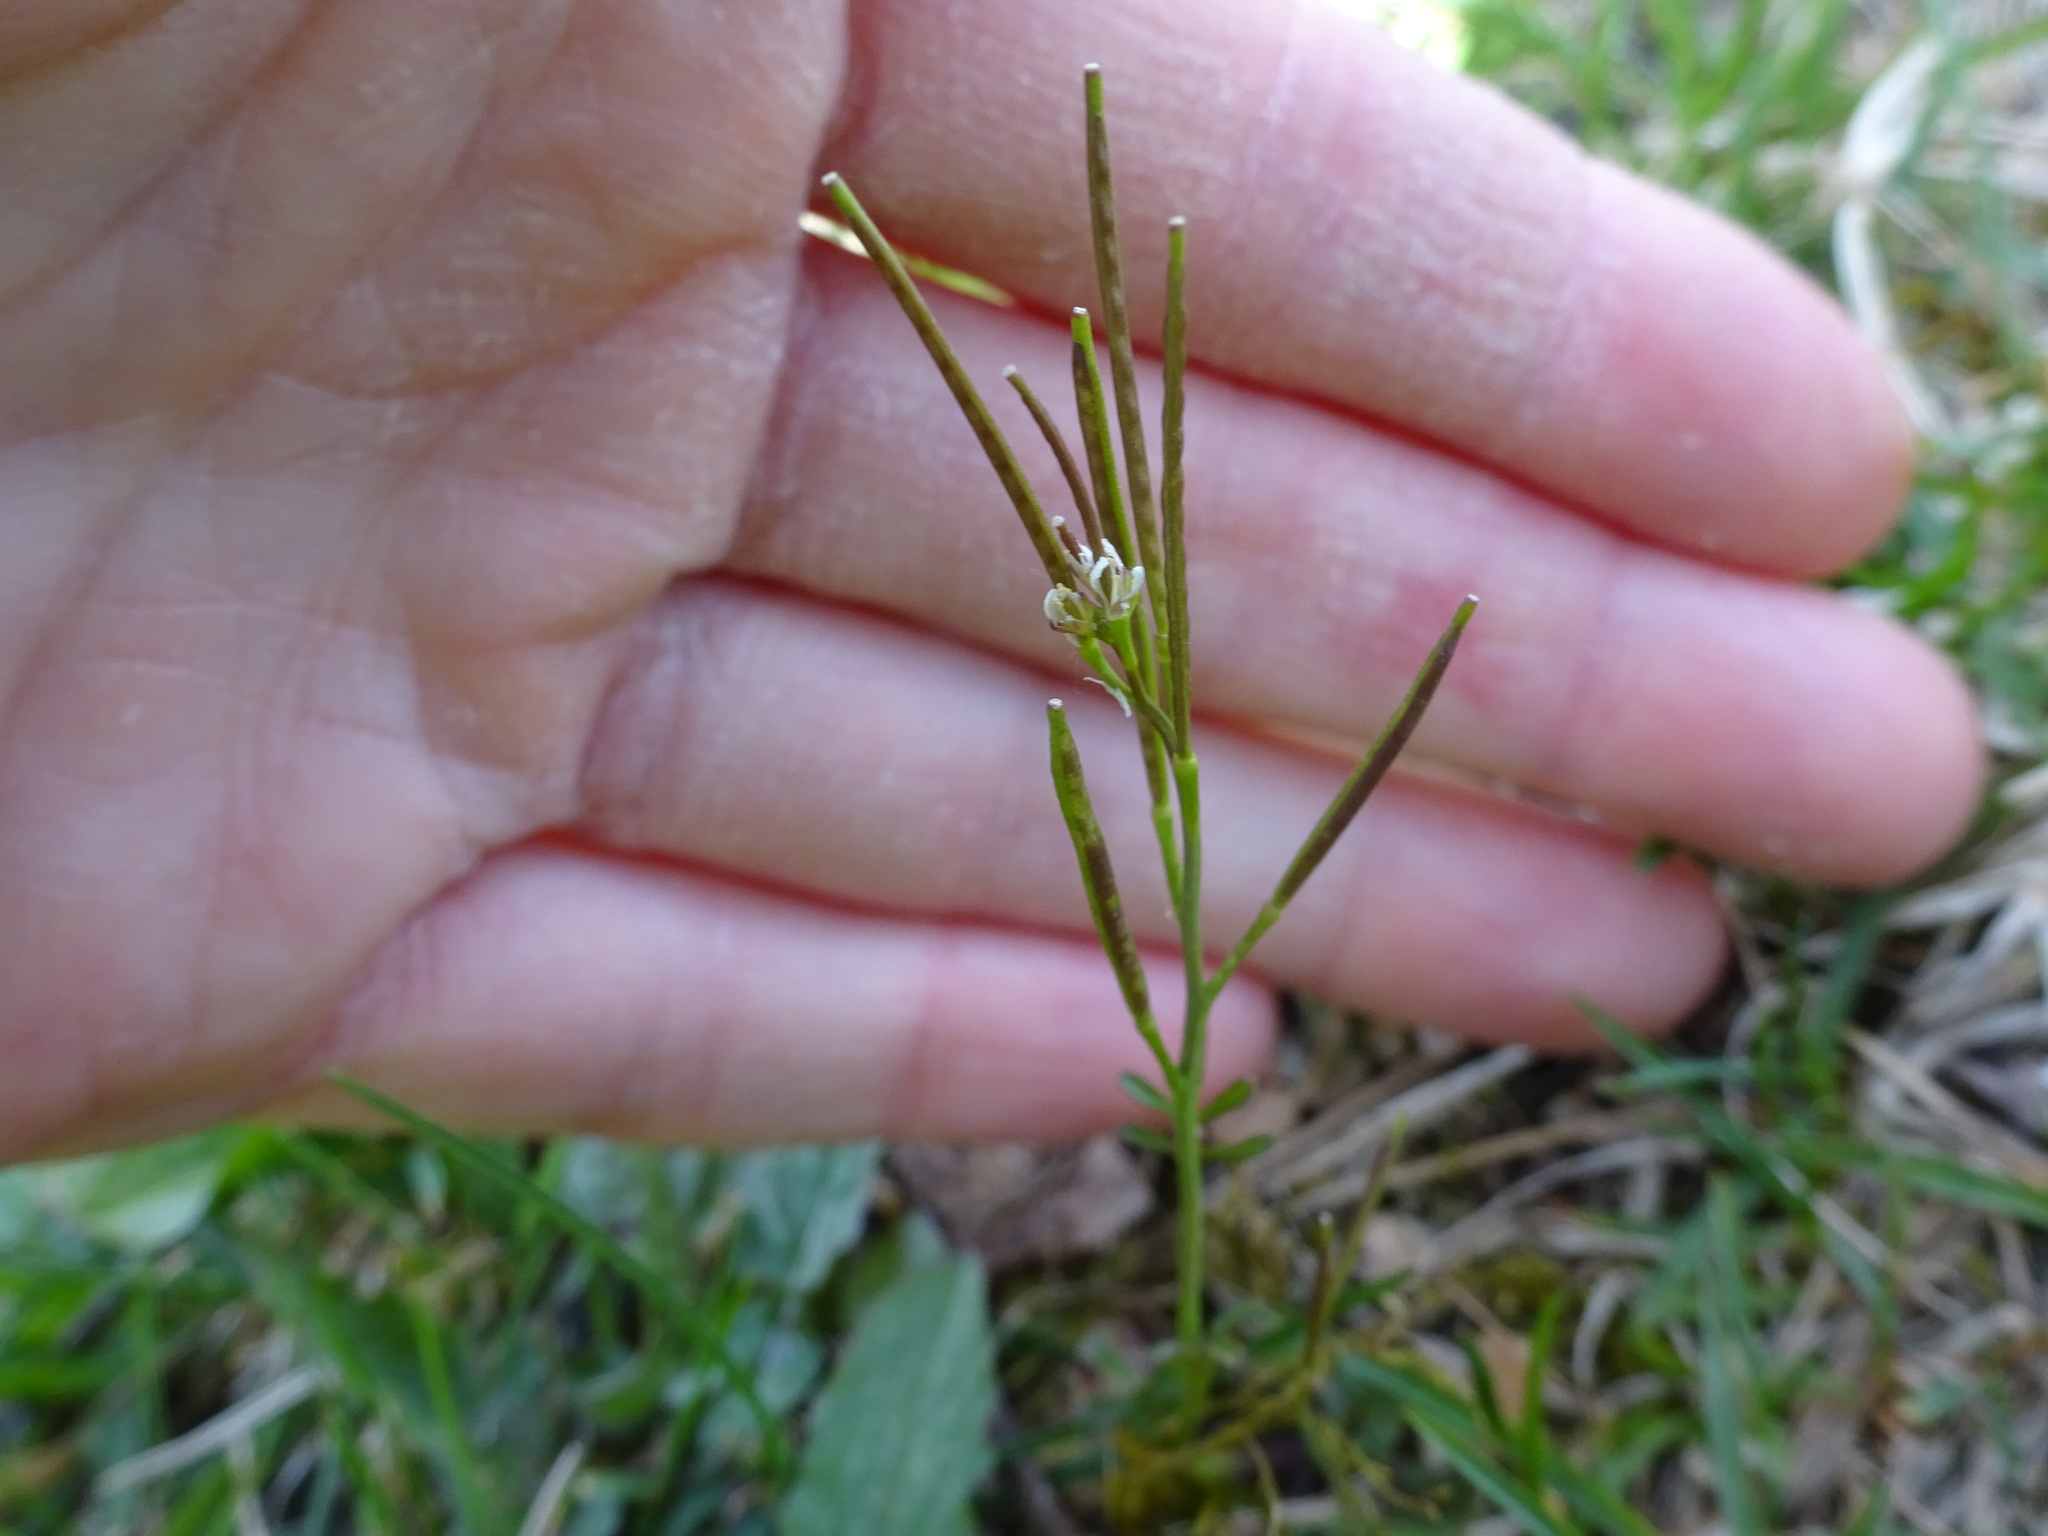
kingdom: Plantae
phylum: Tracheophyta
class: Magnoliopsida
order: Brassicales
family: Brassicaceae
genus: Cardamine
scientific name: Cardamine hirsuta
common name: Hairy bittercress
